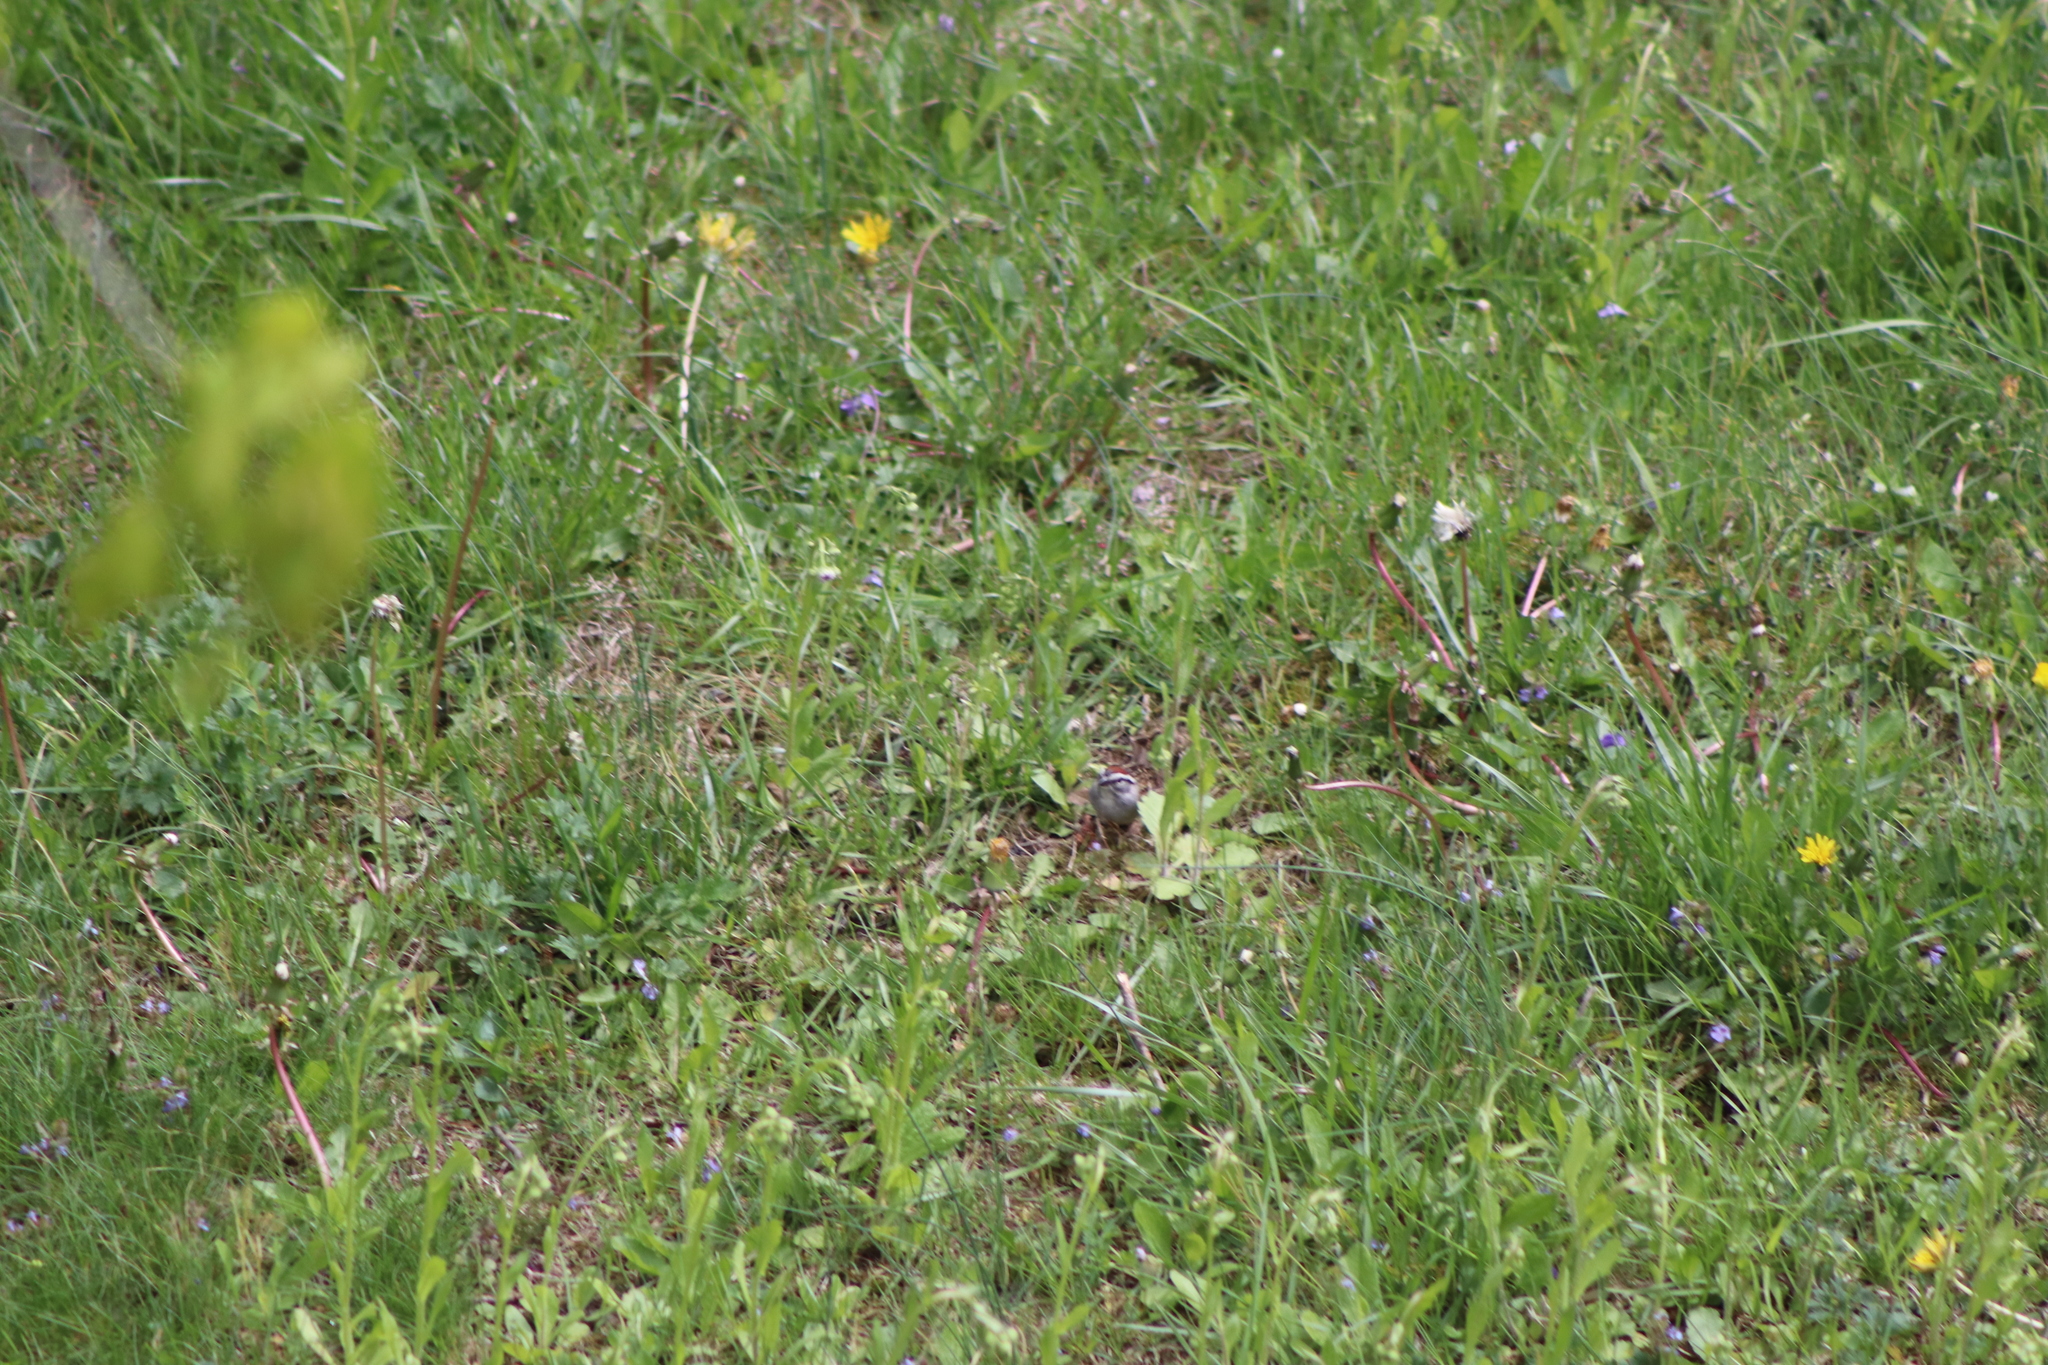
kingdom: Animalia
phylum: Chordata
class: Aves
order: Passeriformes
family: Passerellidae
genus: Spizella
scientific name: Spizella passerina
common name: Chipping sparrow
